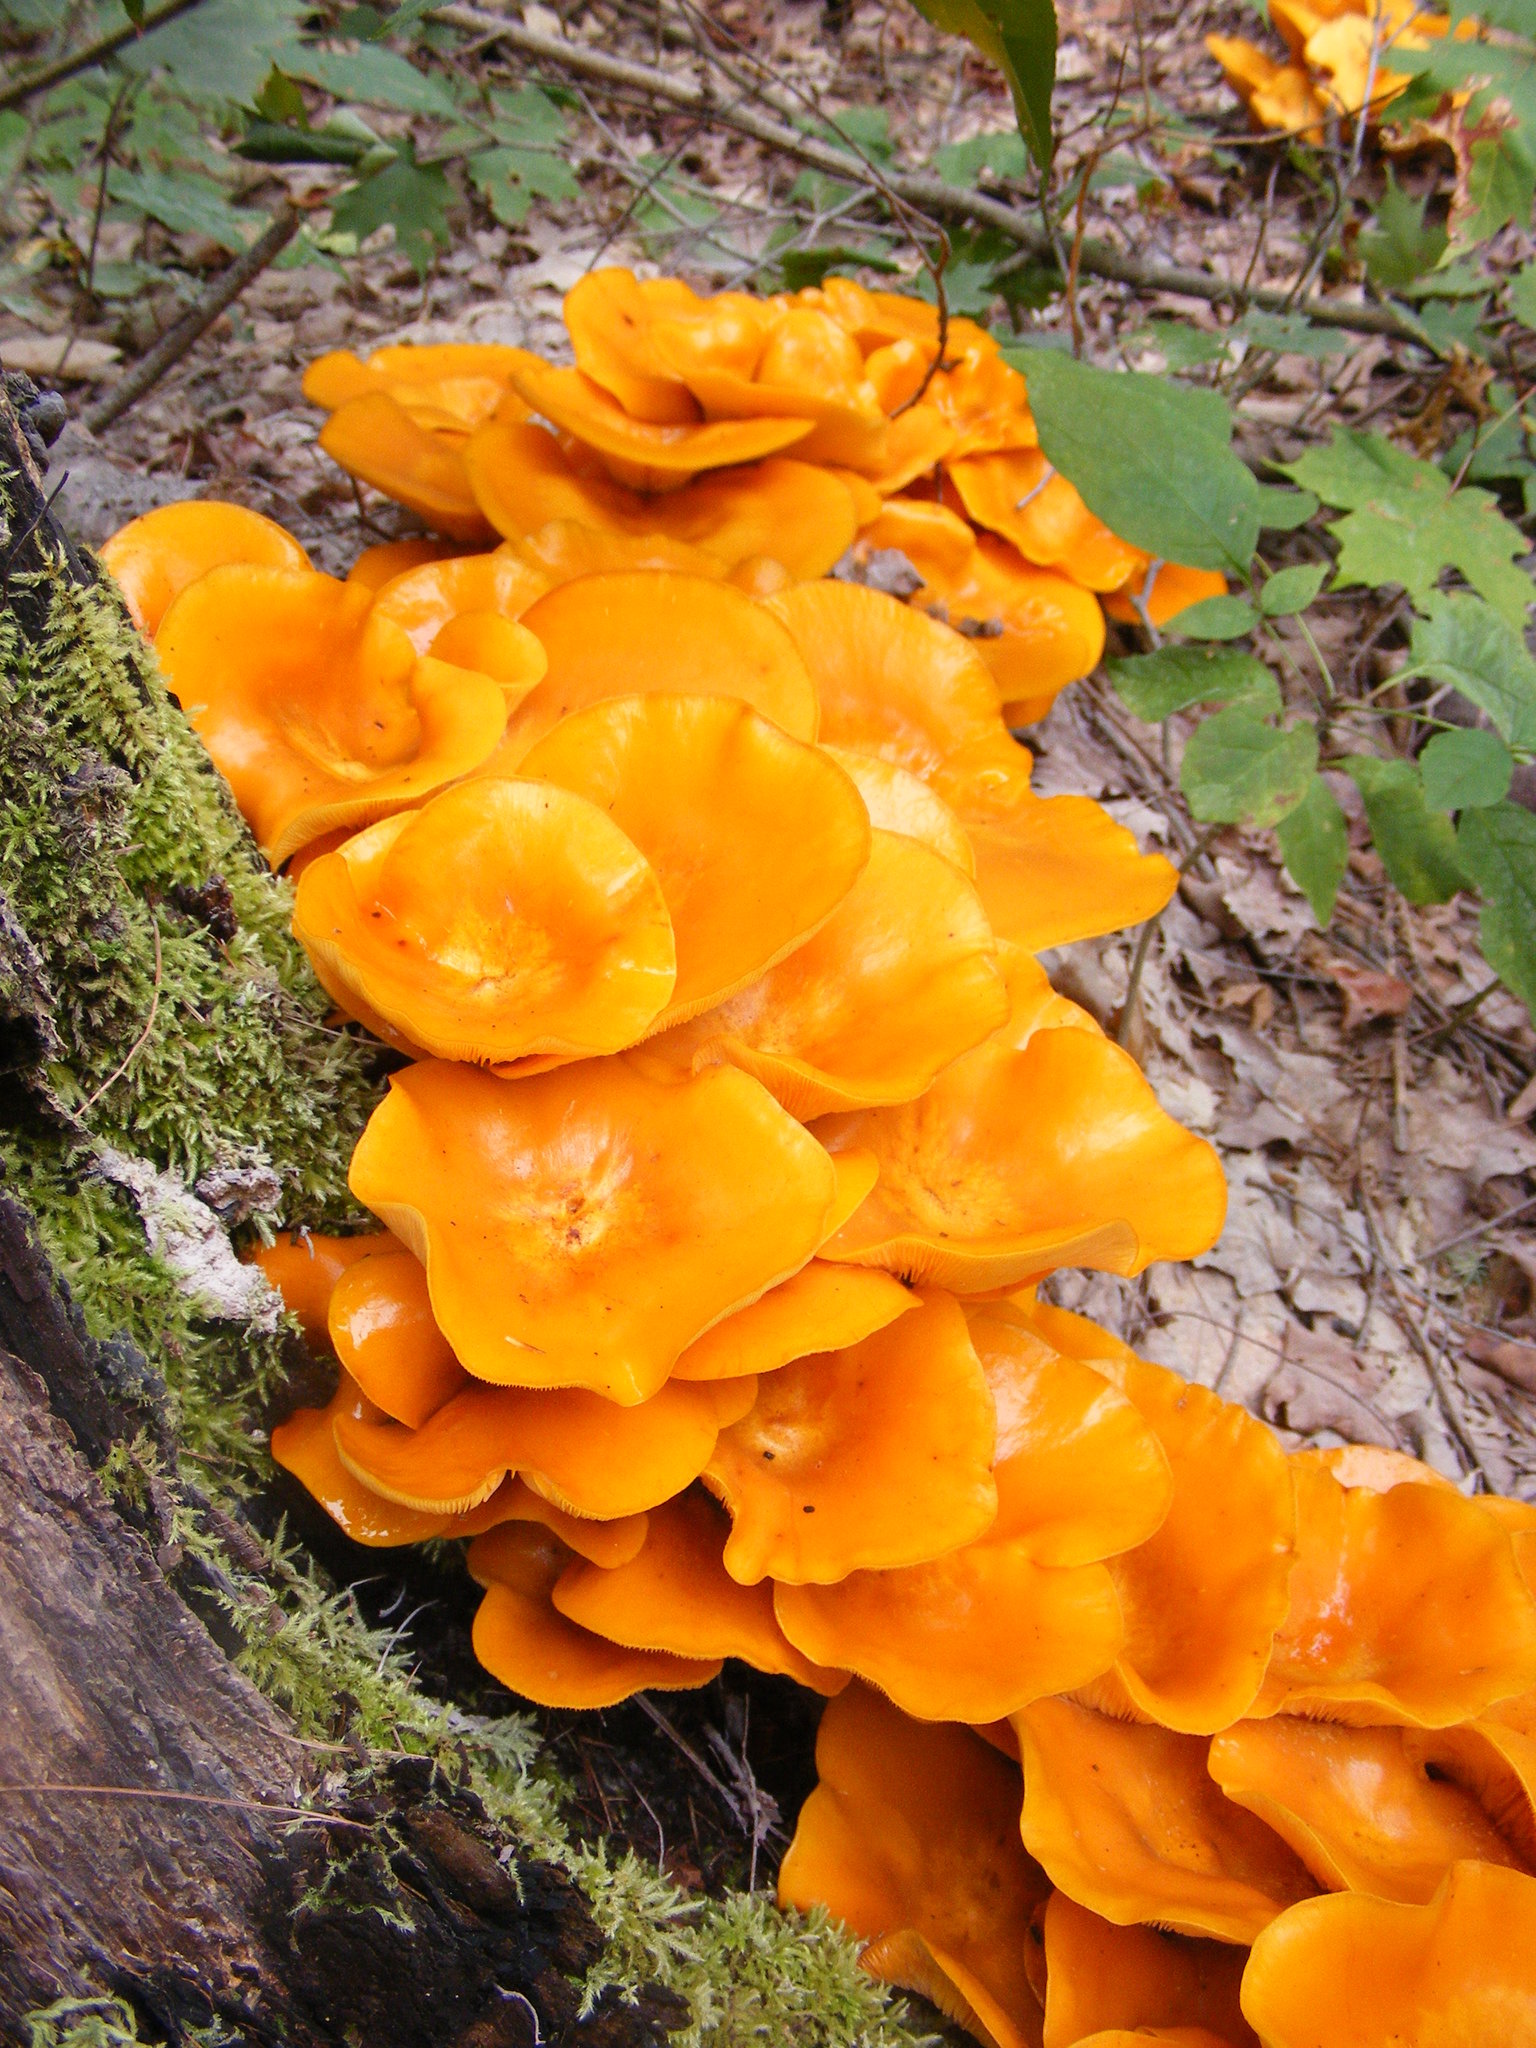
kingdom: Fungi
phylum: Basidiomycota
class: Agaricomycetes
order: Agaricales
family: Omphalotaceae
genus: Omphalotus
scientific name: Omphalotus illudens
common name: Jack o lantern
